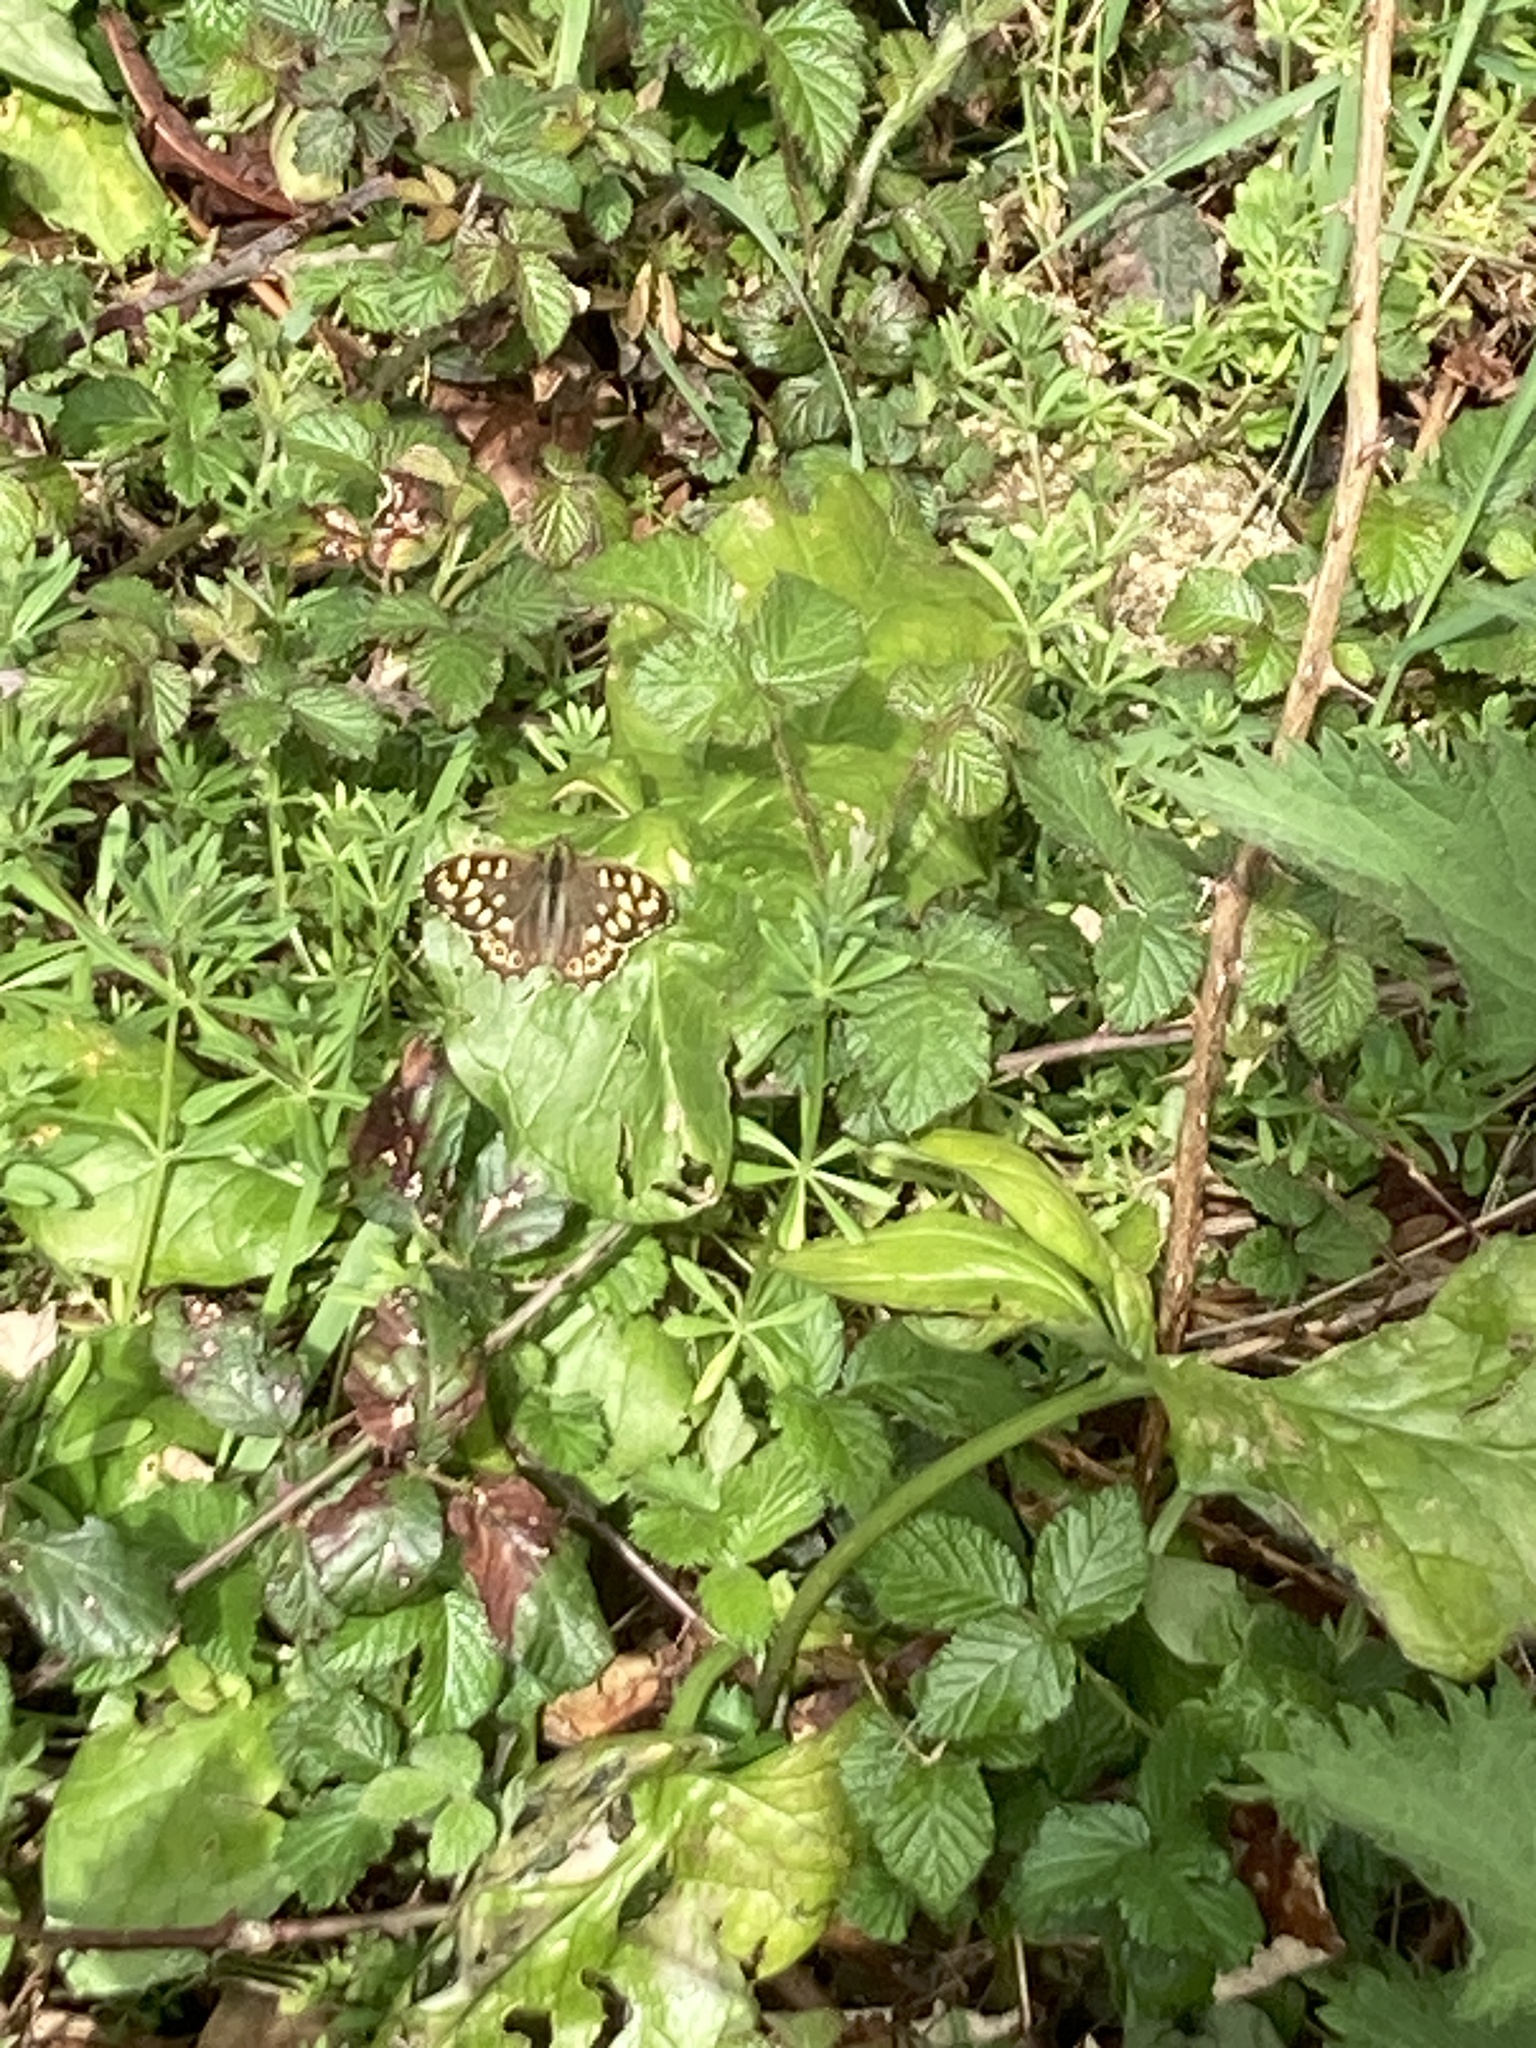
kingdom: Animalia
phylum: Arthropoda
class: Insecta
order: Lepidoptera
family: Nymphalidae
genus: Pararge
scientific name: Pararge aegeria
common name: Speckled wood
